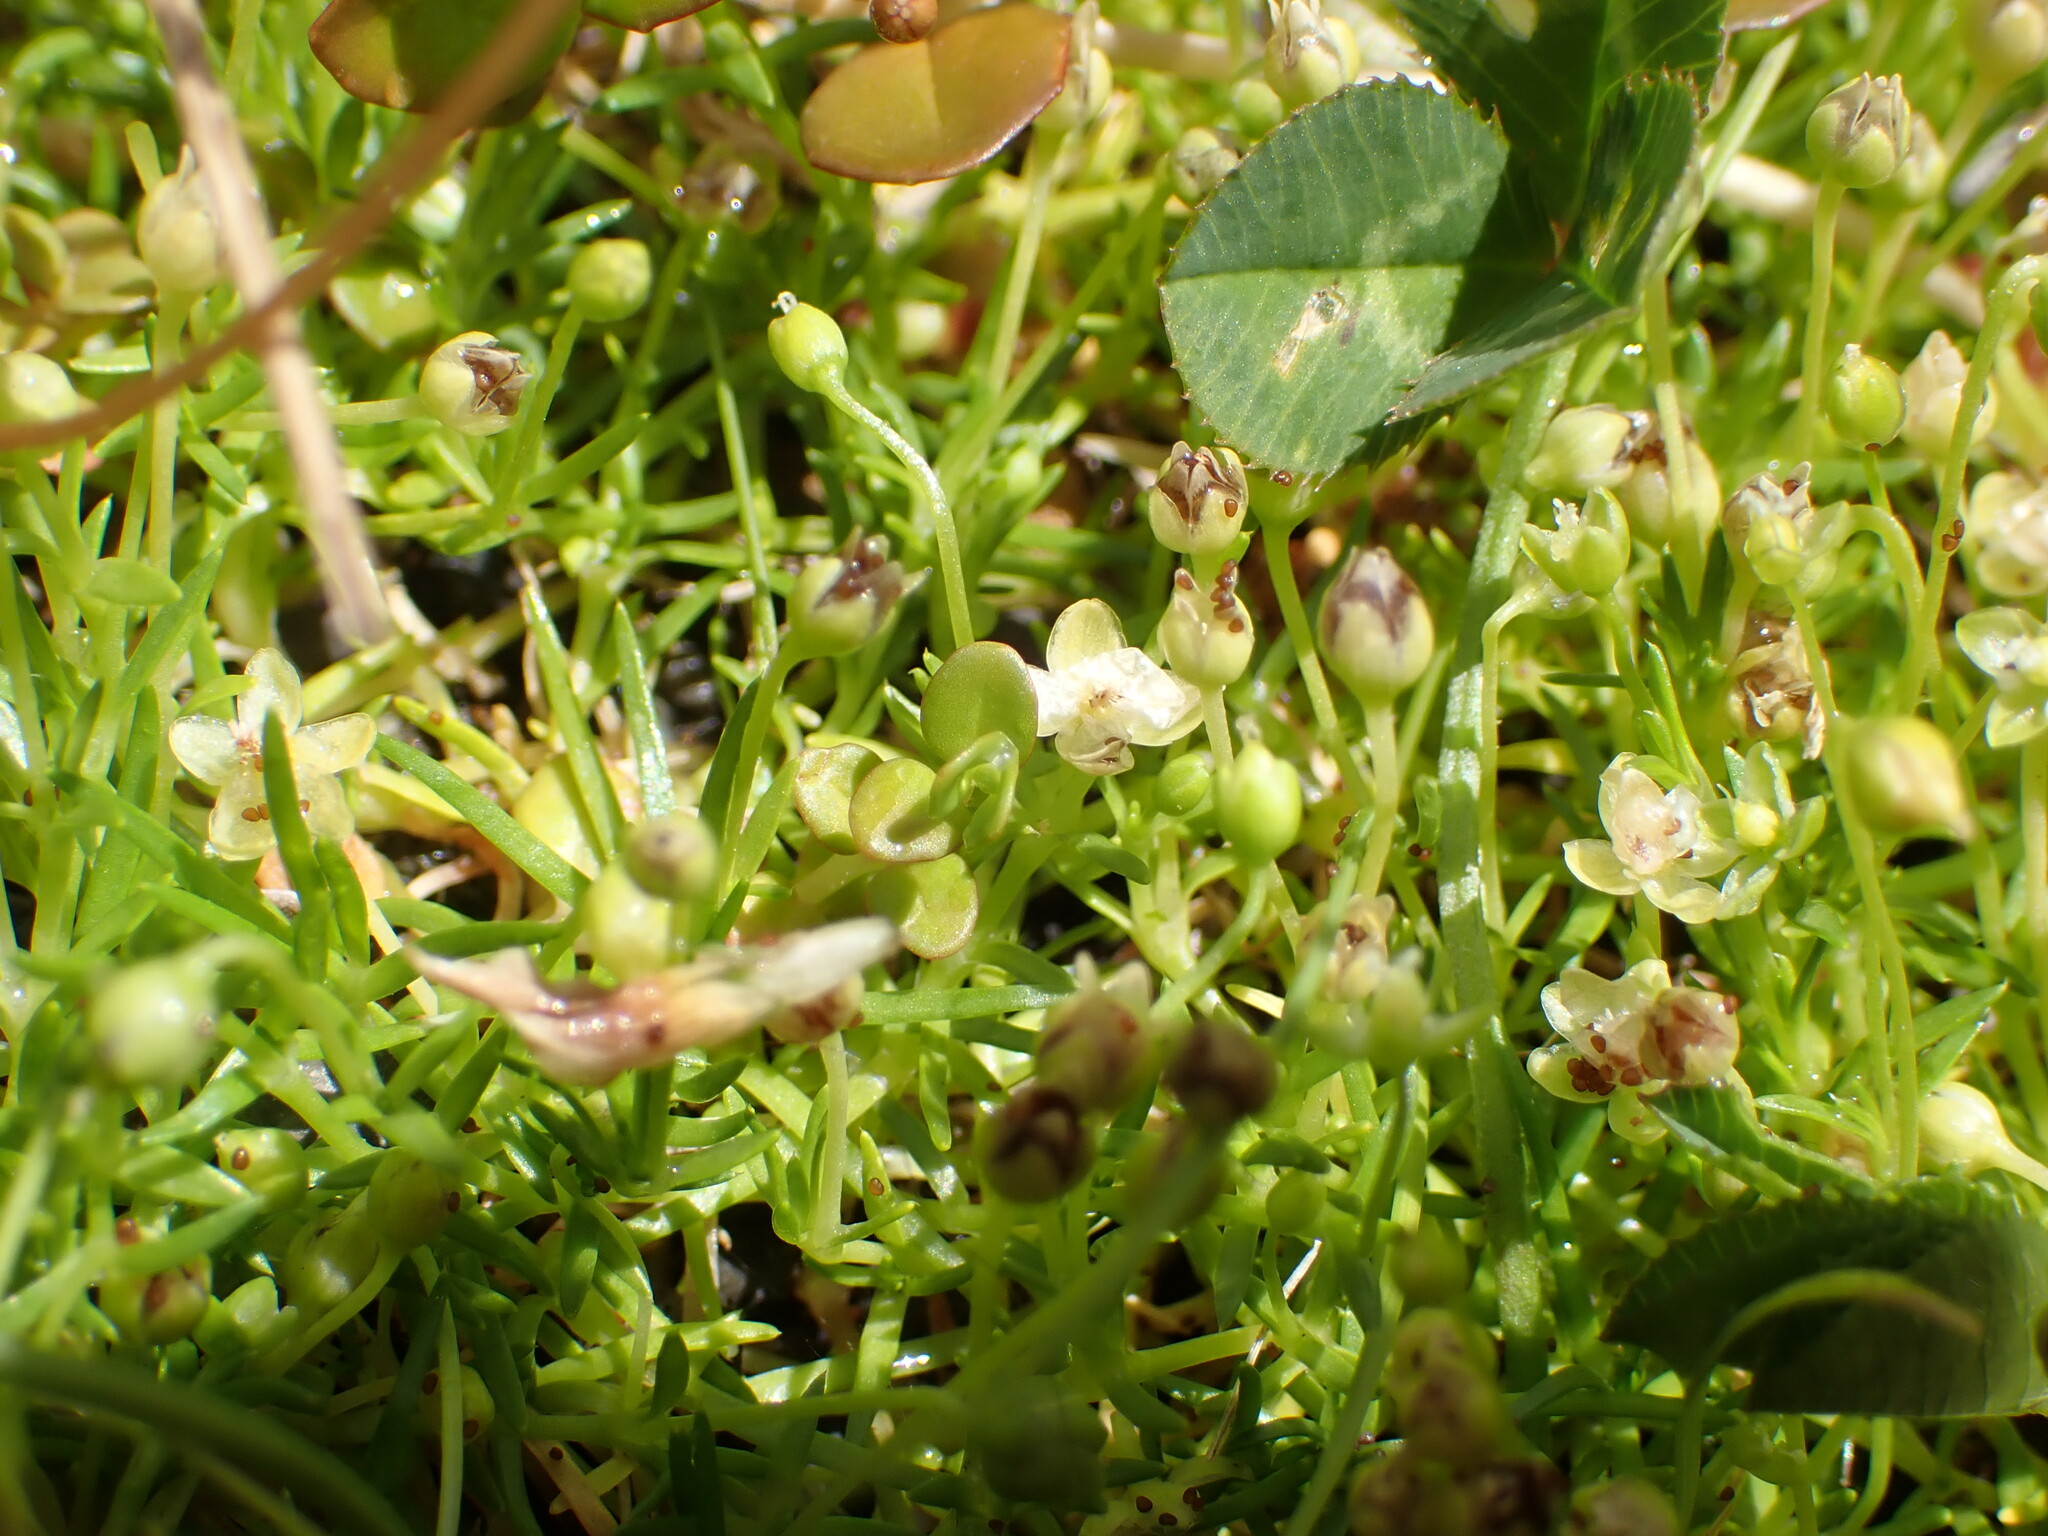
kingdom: Plantae
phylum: Tracheophyta
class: Magnoliopsida
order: Caryophyllales
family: Caryophyllaceae
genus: Sagina
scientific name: Sagina procumbens
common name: Procumbent pearlwort
